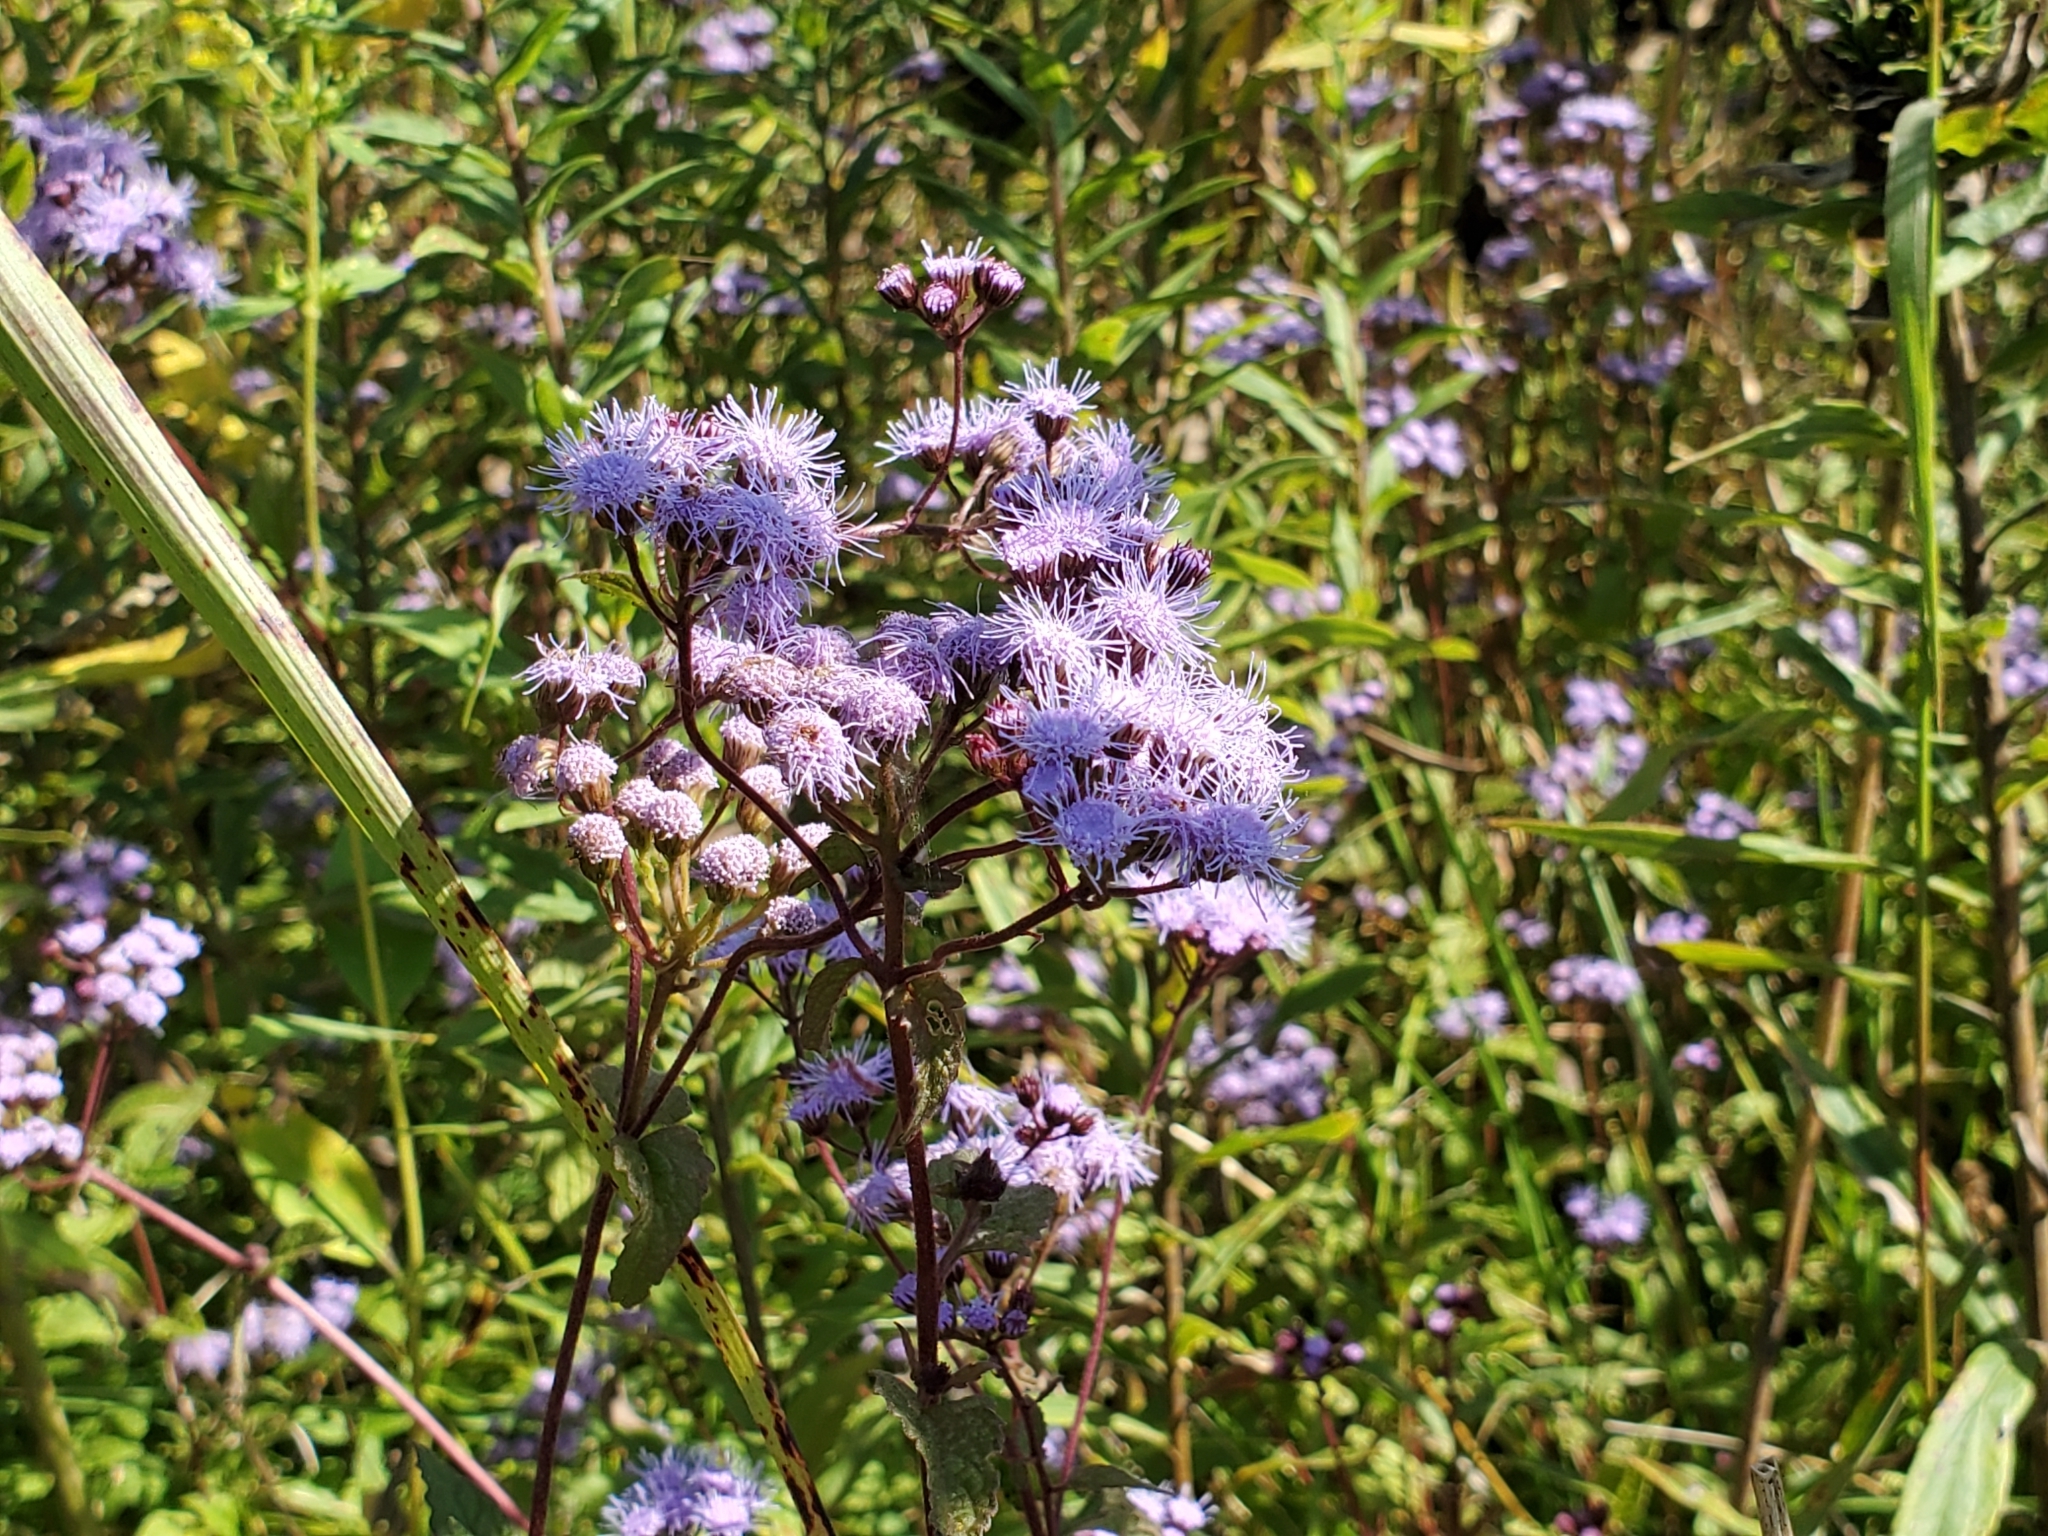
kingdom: Plantae
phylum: Tracheophyta
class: Magnoliopsida
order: Asterales
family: Asteraceae
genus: Conoclinium
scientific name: Conoclinium coelestinum
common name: Blue mistflower
